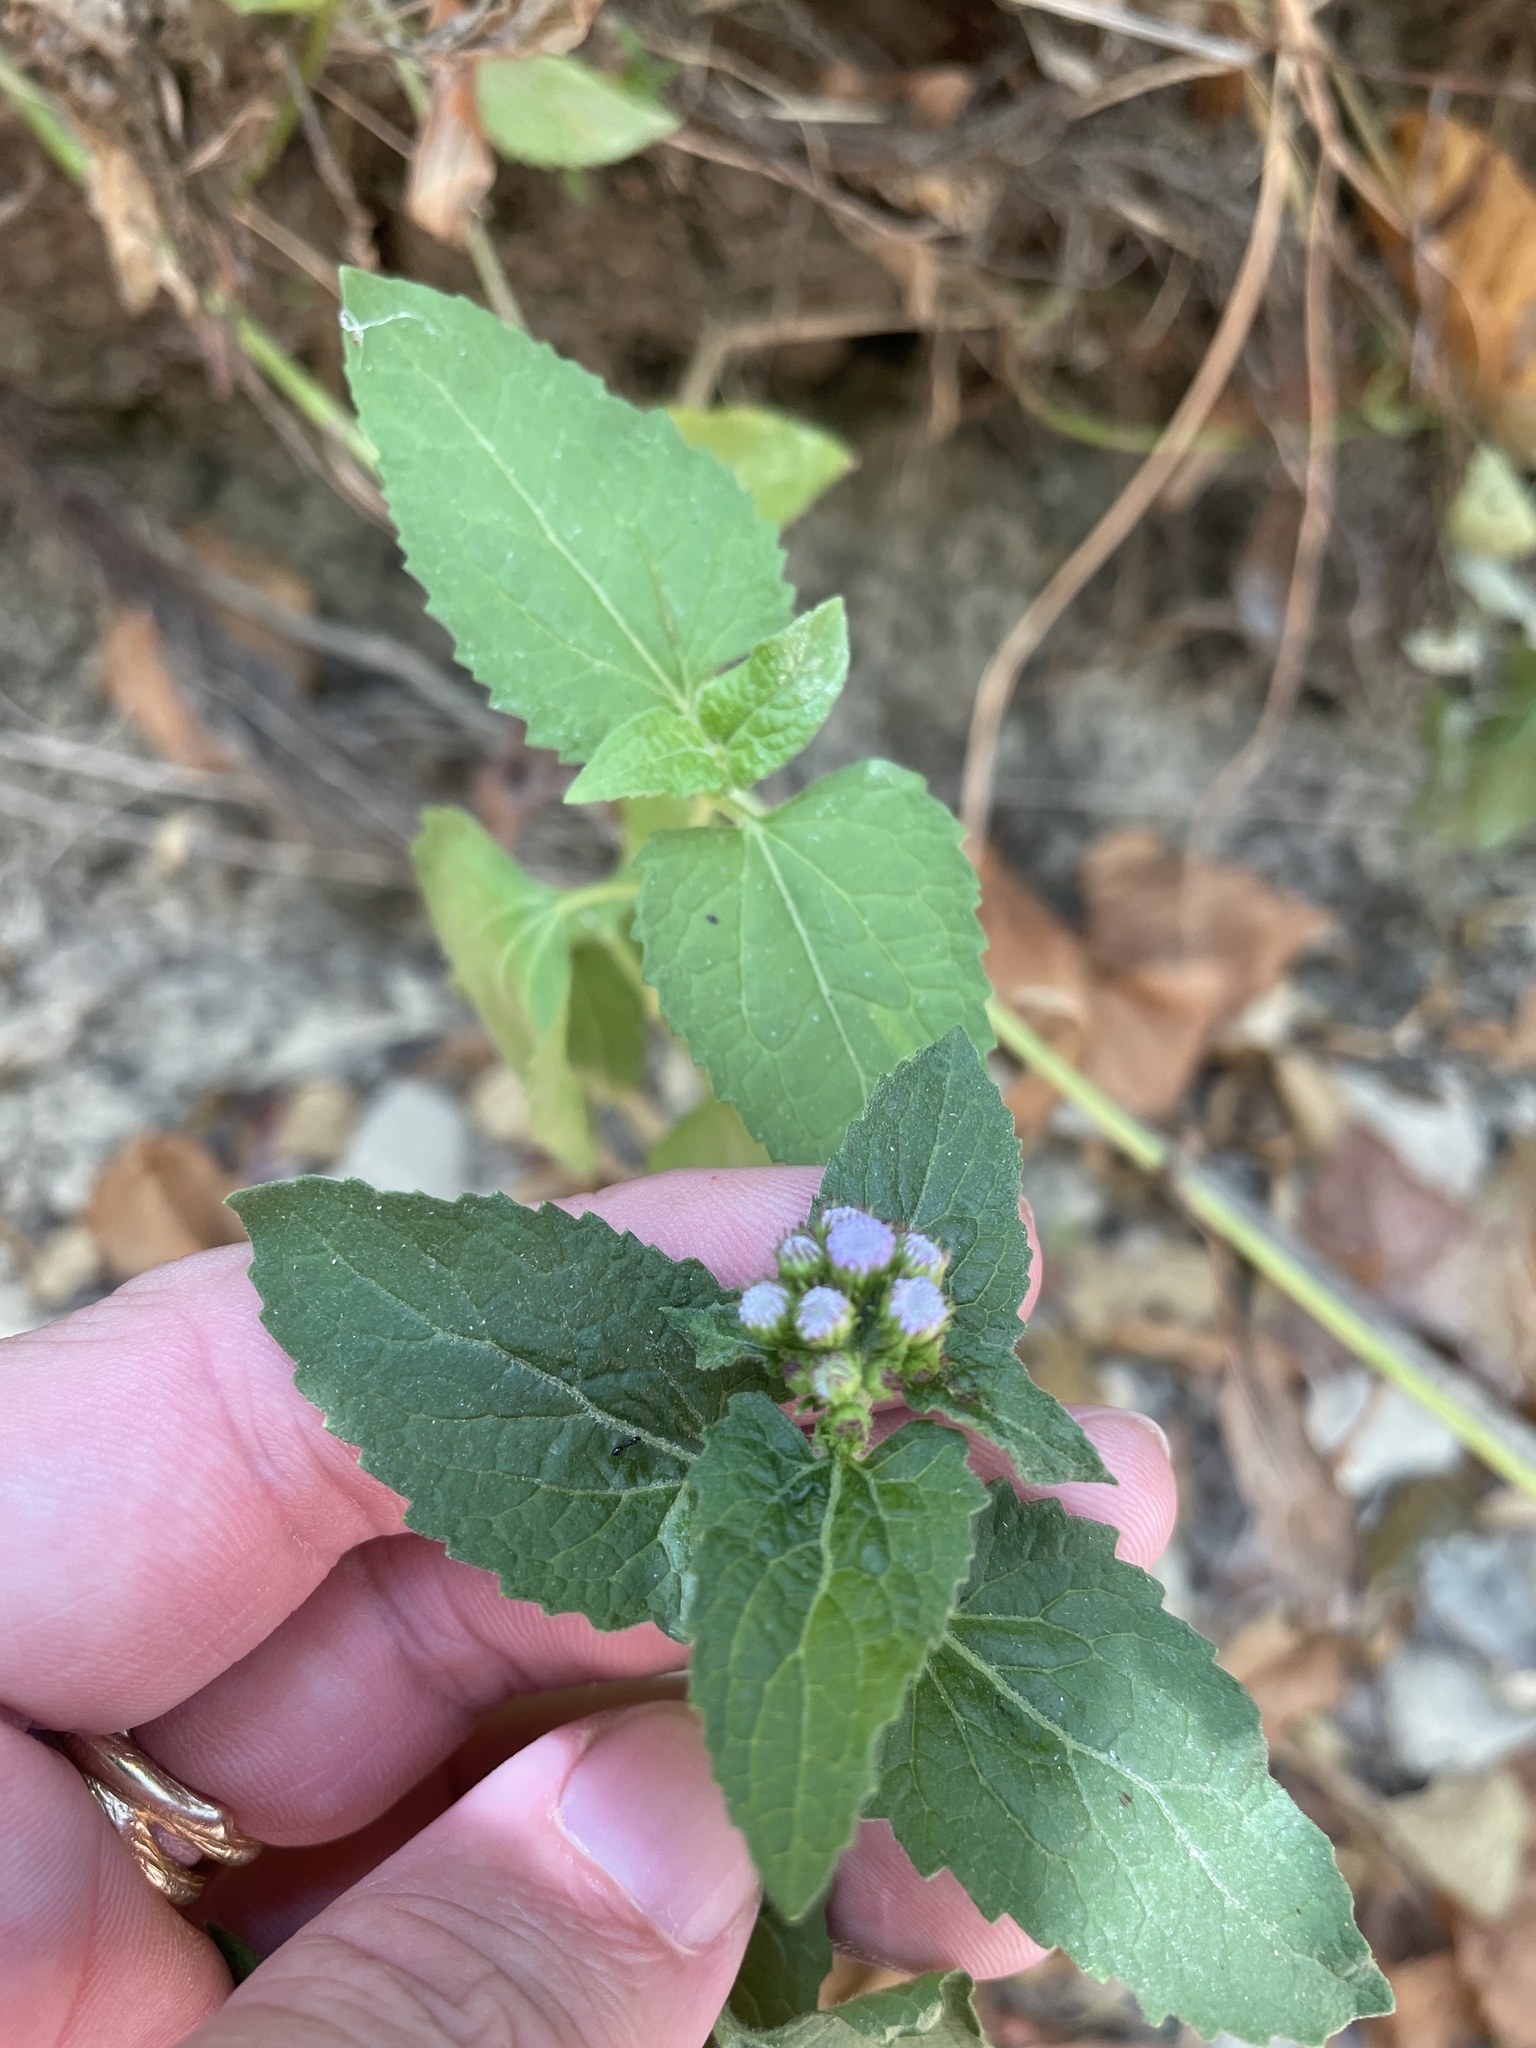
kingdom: Plantae
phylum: Tracheophyta
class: Magnoliopsida
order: Asterales
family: Asteraceae
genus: Conoclinium
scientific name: Conoclinium coelestinum
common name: Blue mistflower
